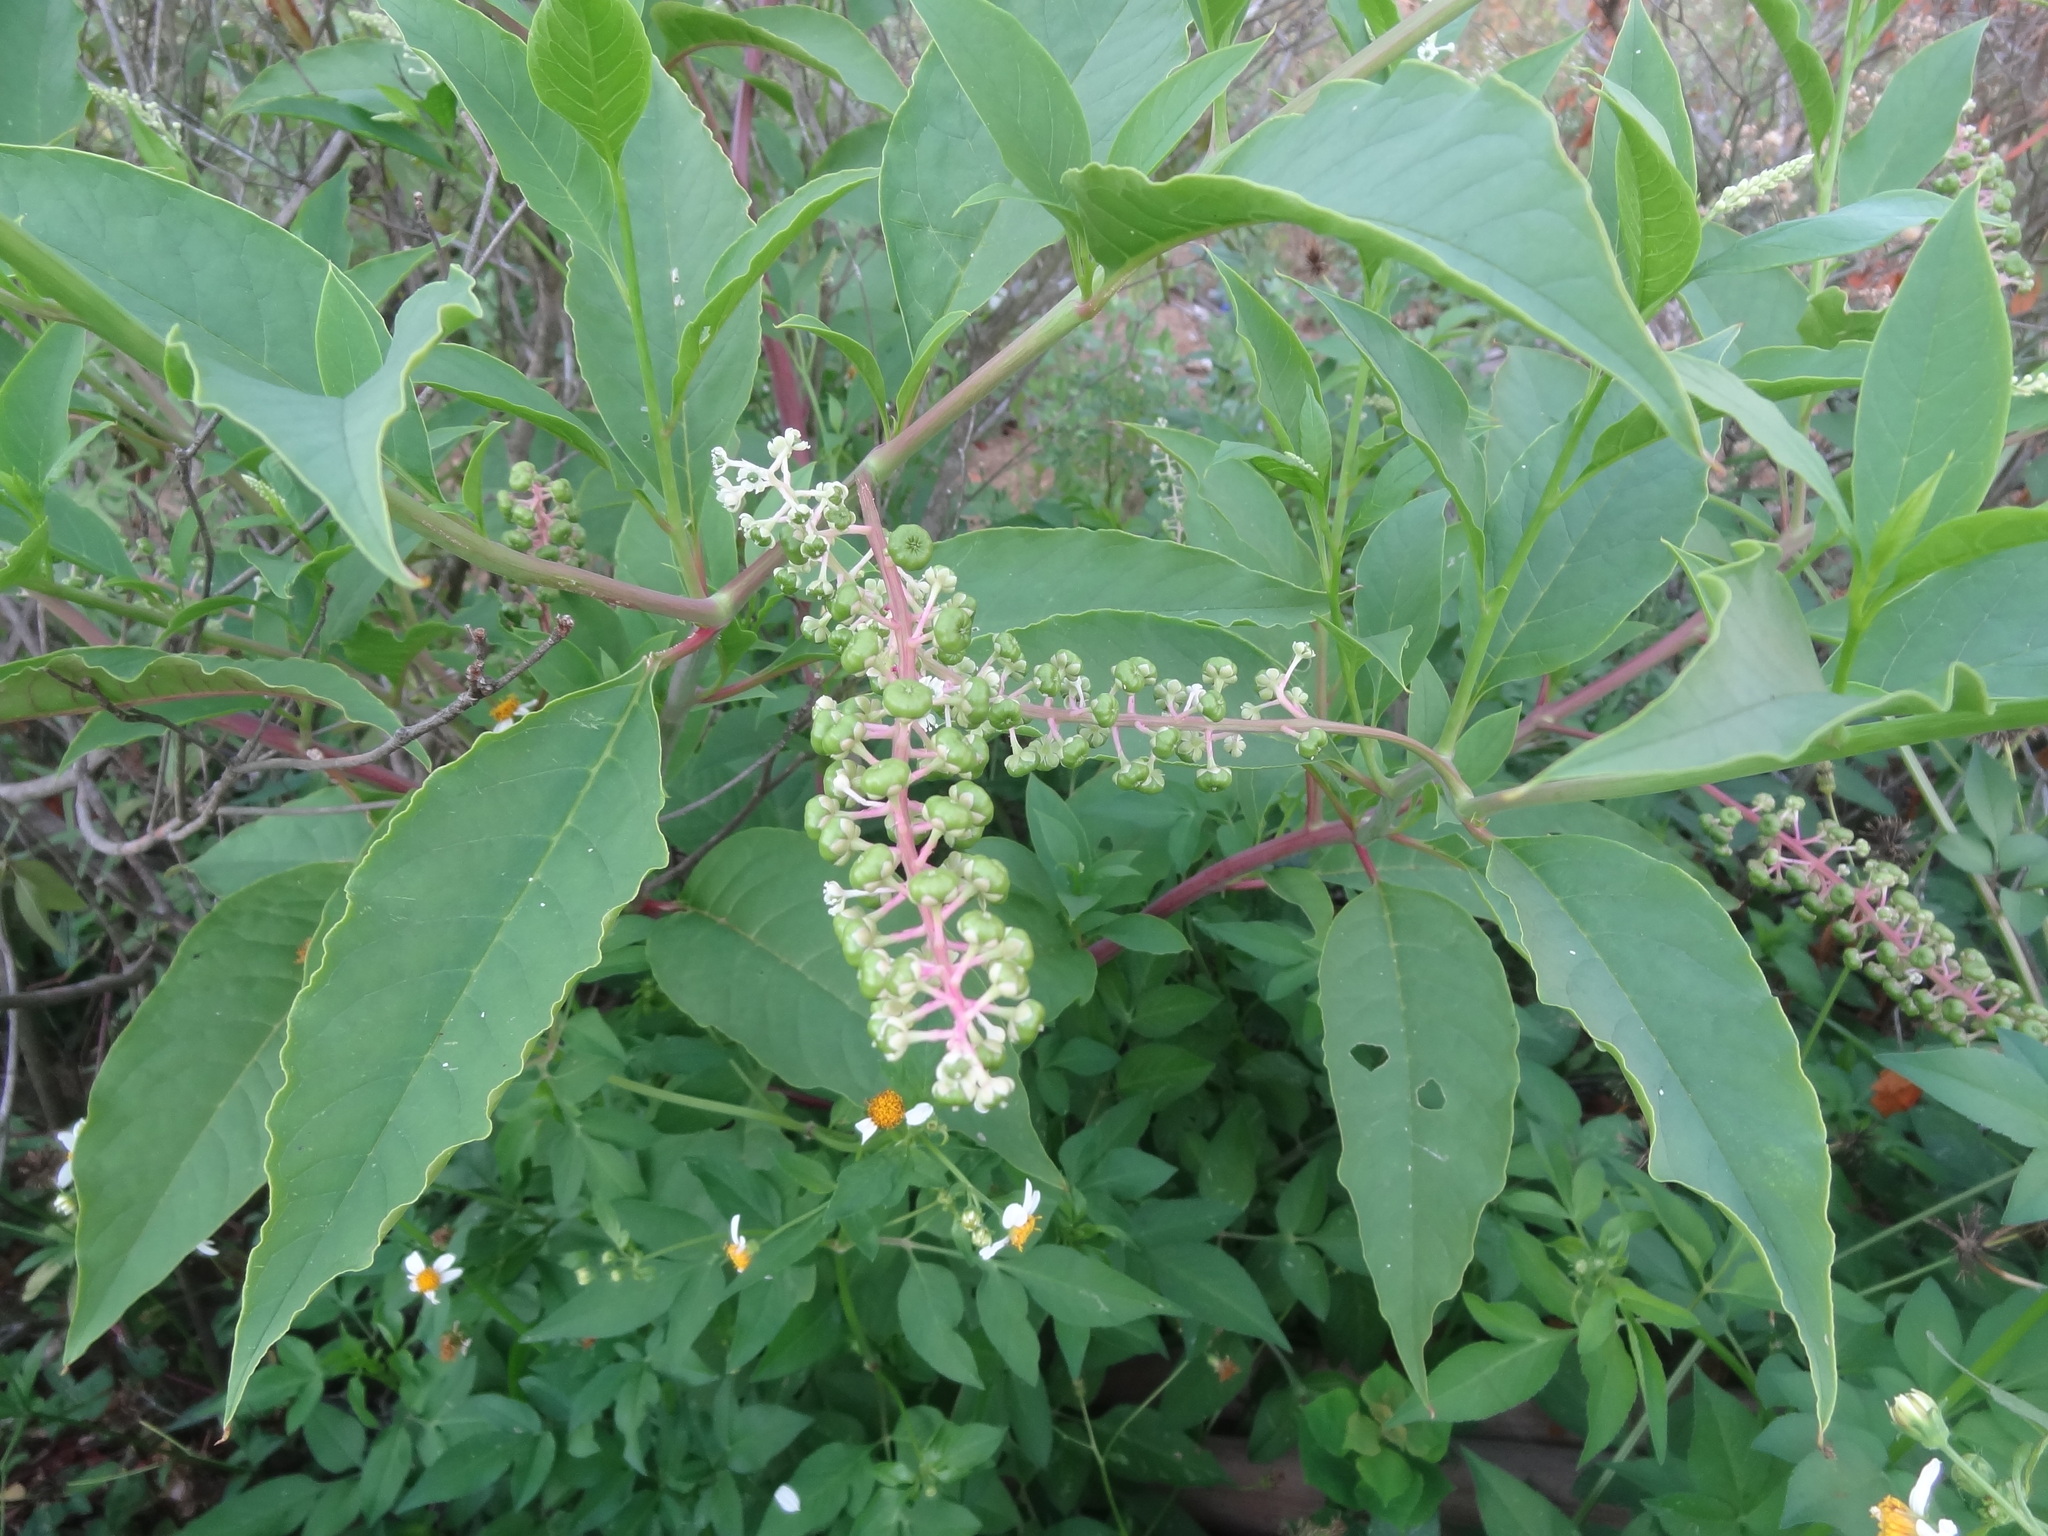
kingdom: Plantae
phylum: Tracheophyta
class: Magnoliopsida
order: Caryophyllales
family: Phytolaccaceae
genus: Phytolacca
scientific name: Phytolacca americana
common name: American pokeweed
